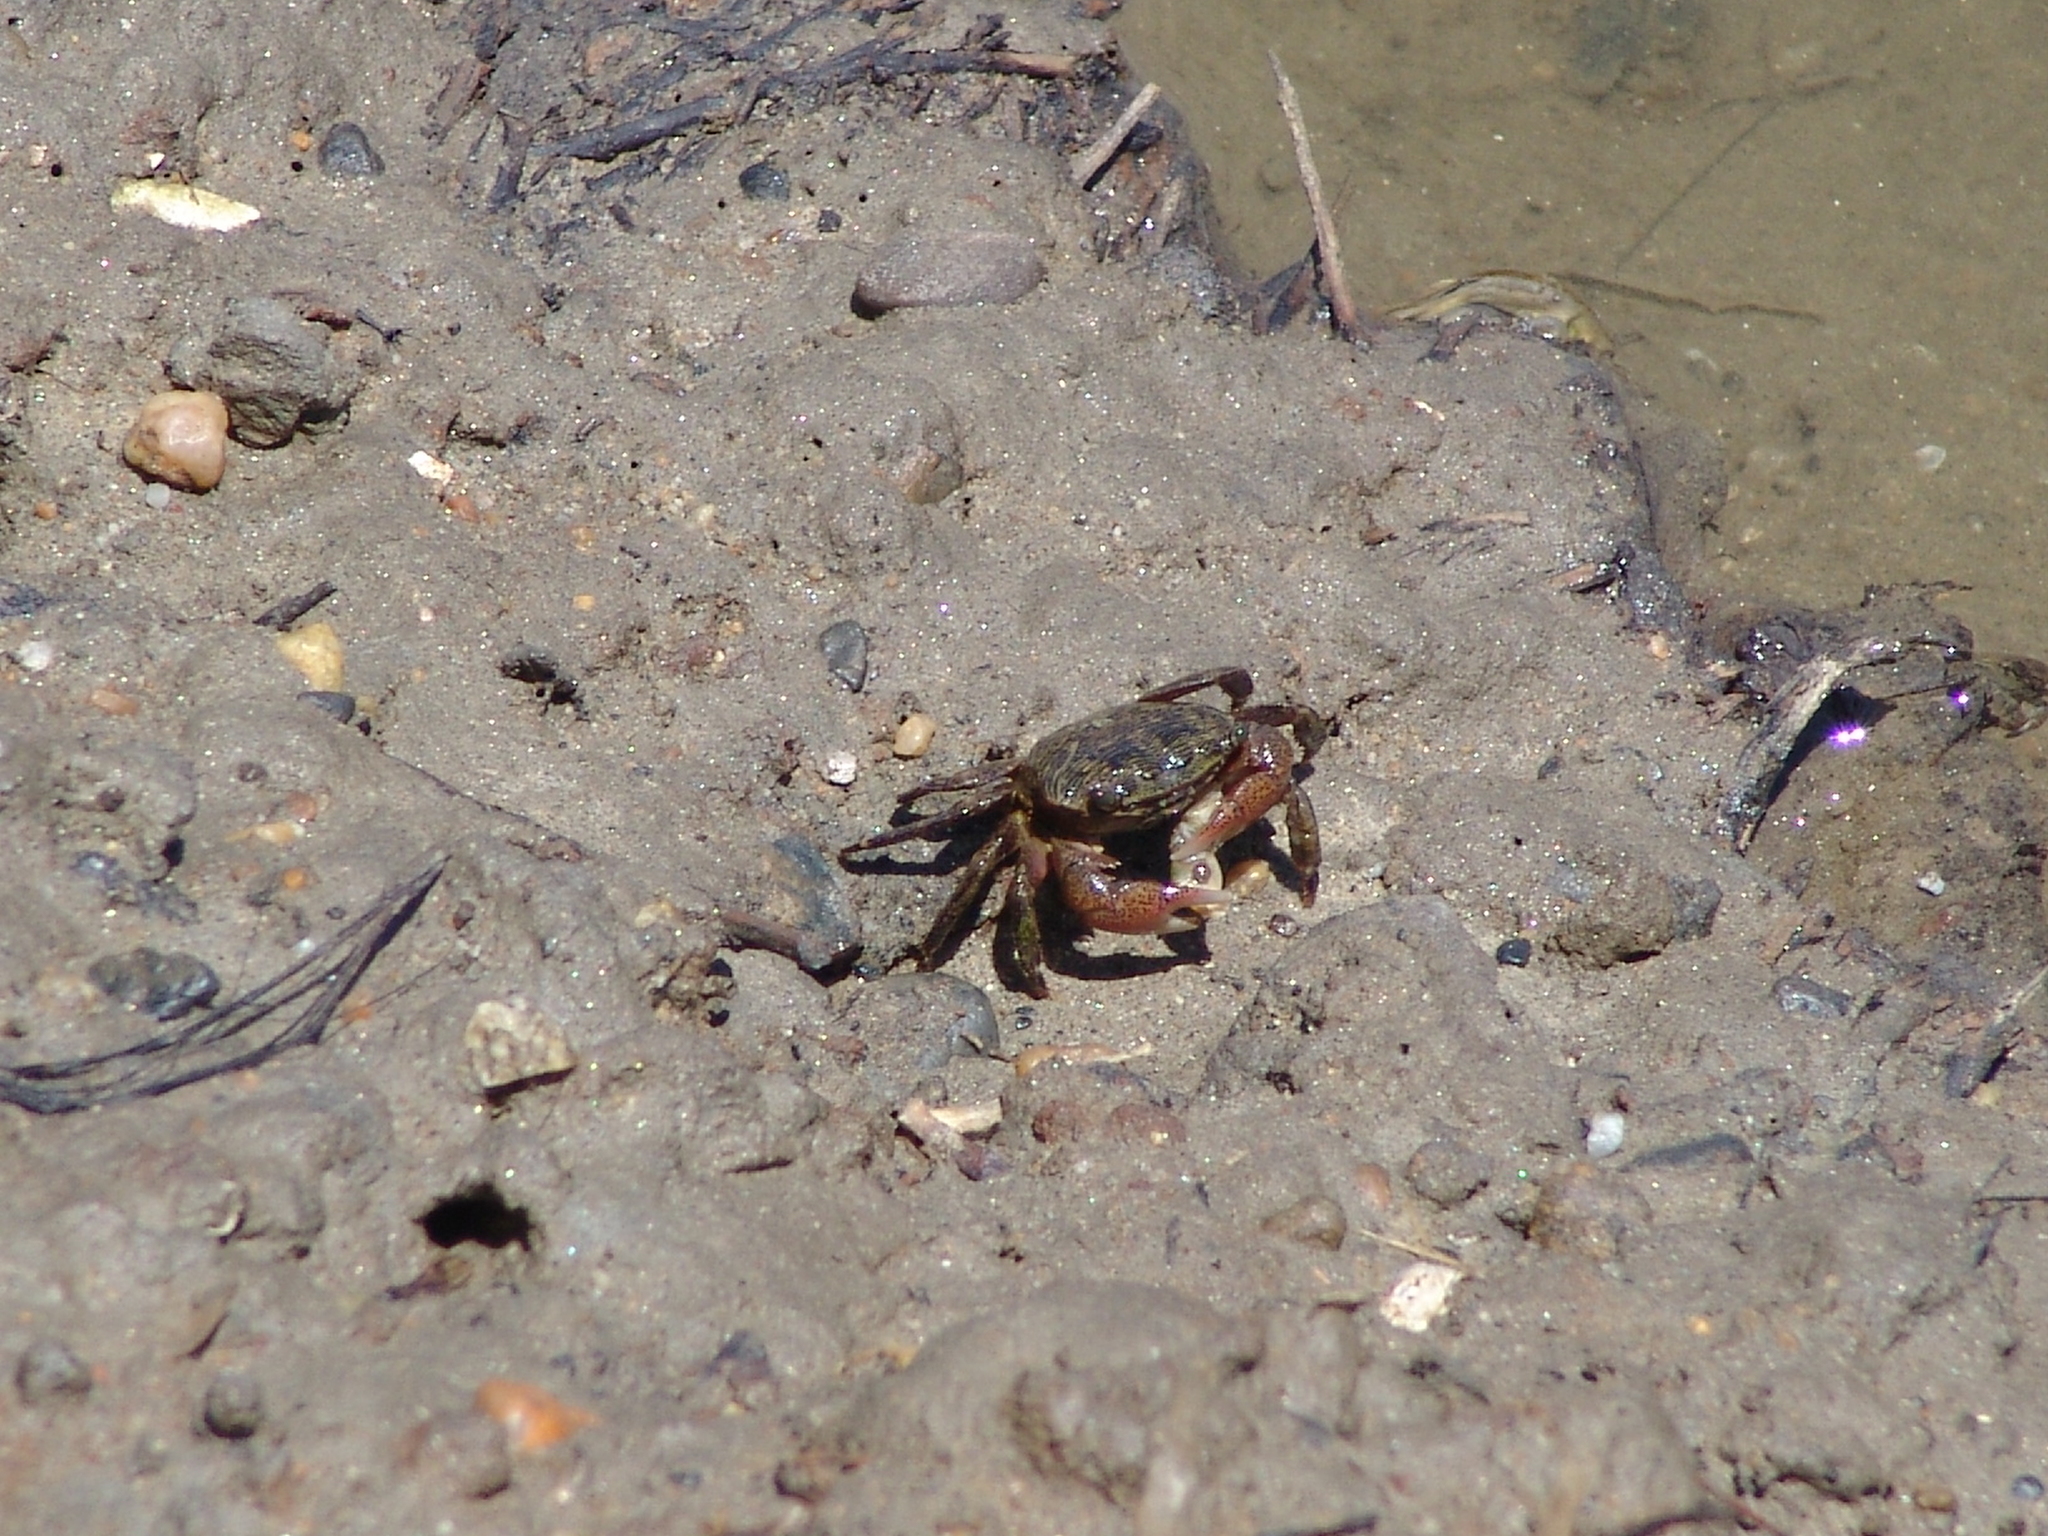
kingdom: Animalia
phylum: Arthropoda
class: Malacostraca
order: Decapoda
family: Grapsidae
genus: Pachygrapsus
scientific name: Pachygrapsus crassipes
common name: Striped shore crab
